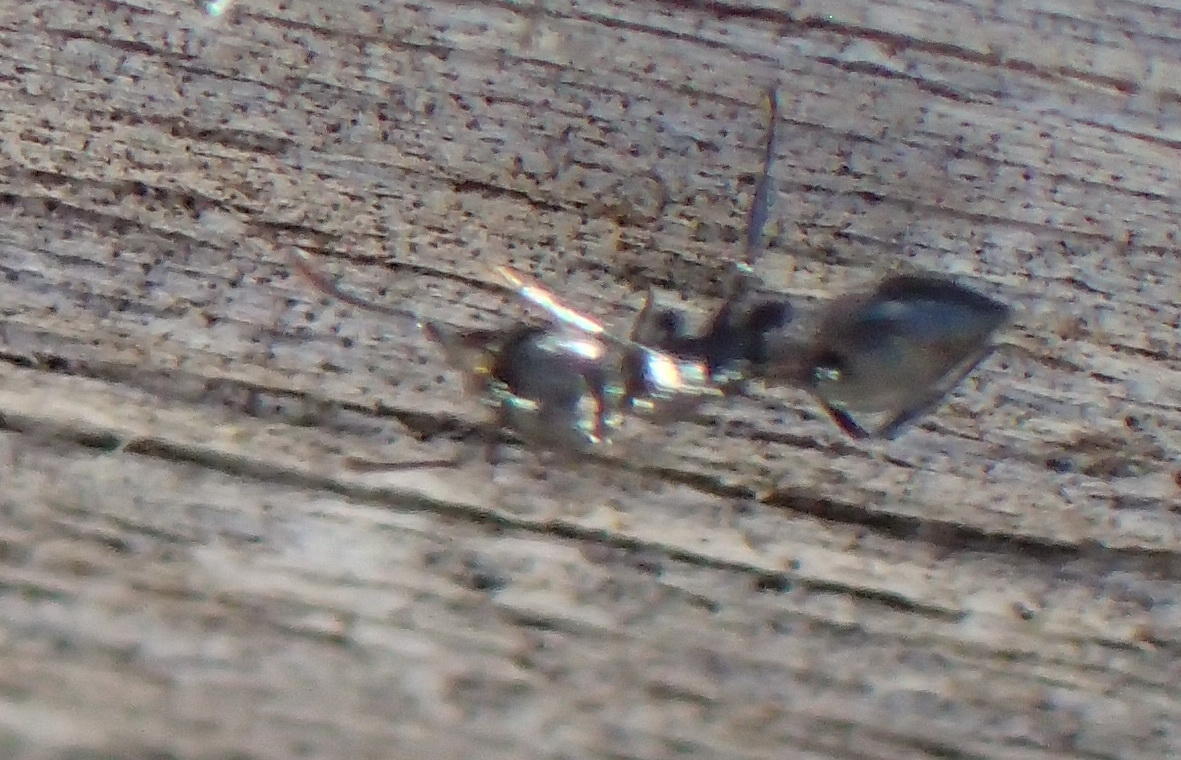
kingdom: Animalia
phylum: Arthropoda
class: Insecta
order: Hymenoptera
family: Formicidae
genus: Crematogaster
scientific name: Crematogaster peringueyi
